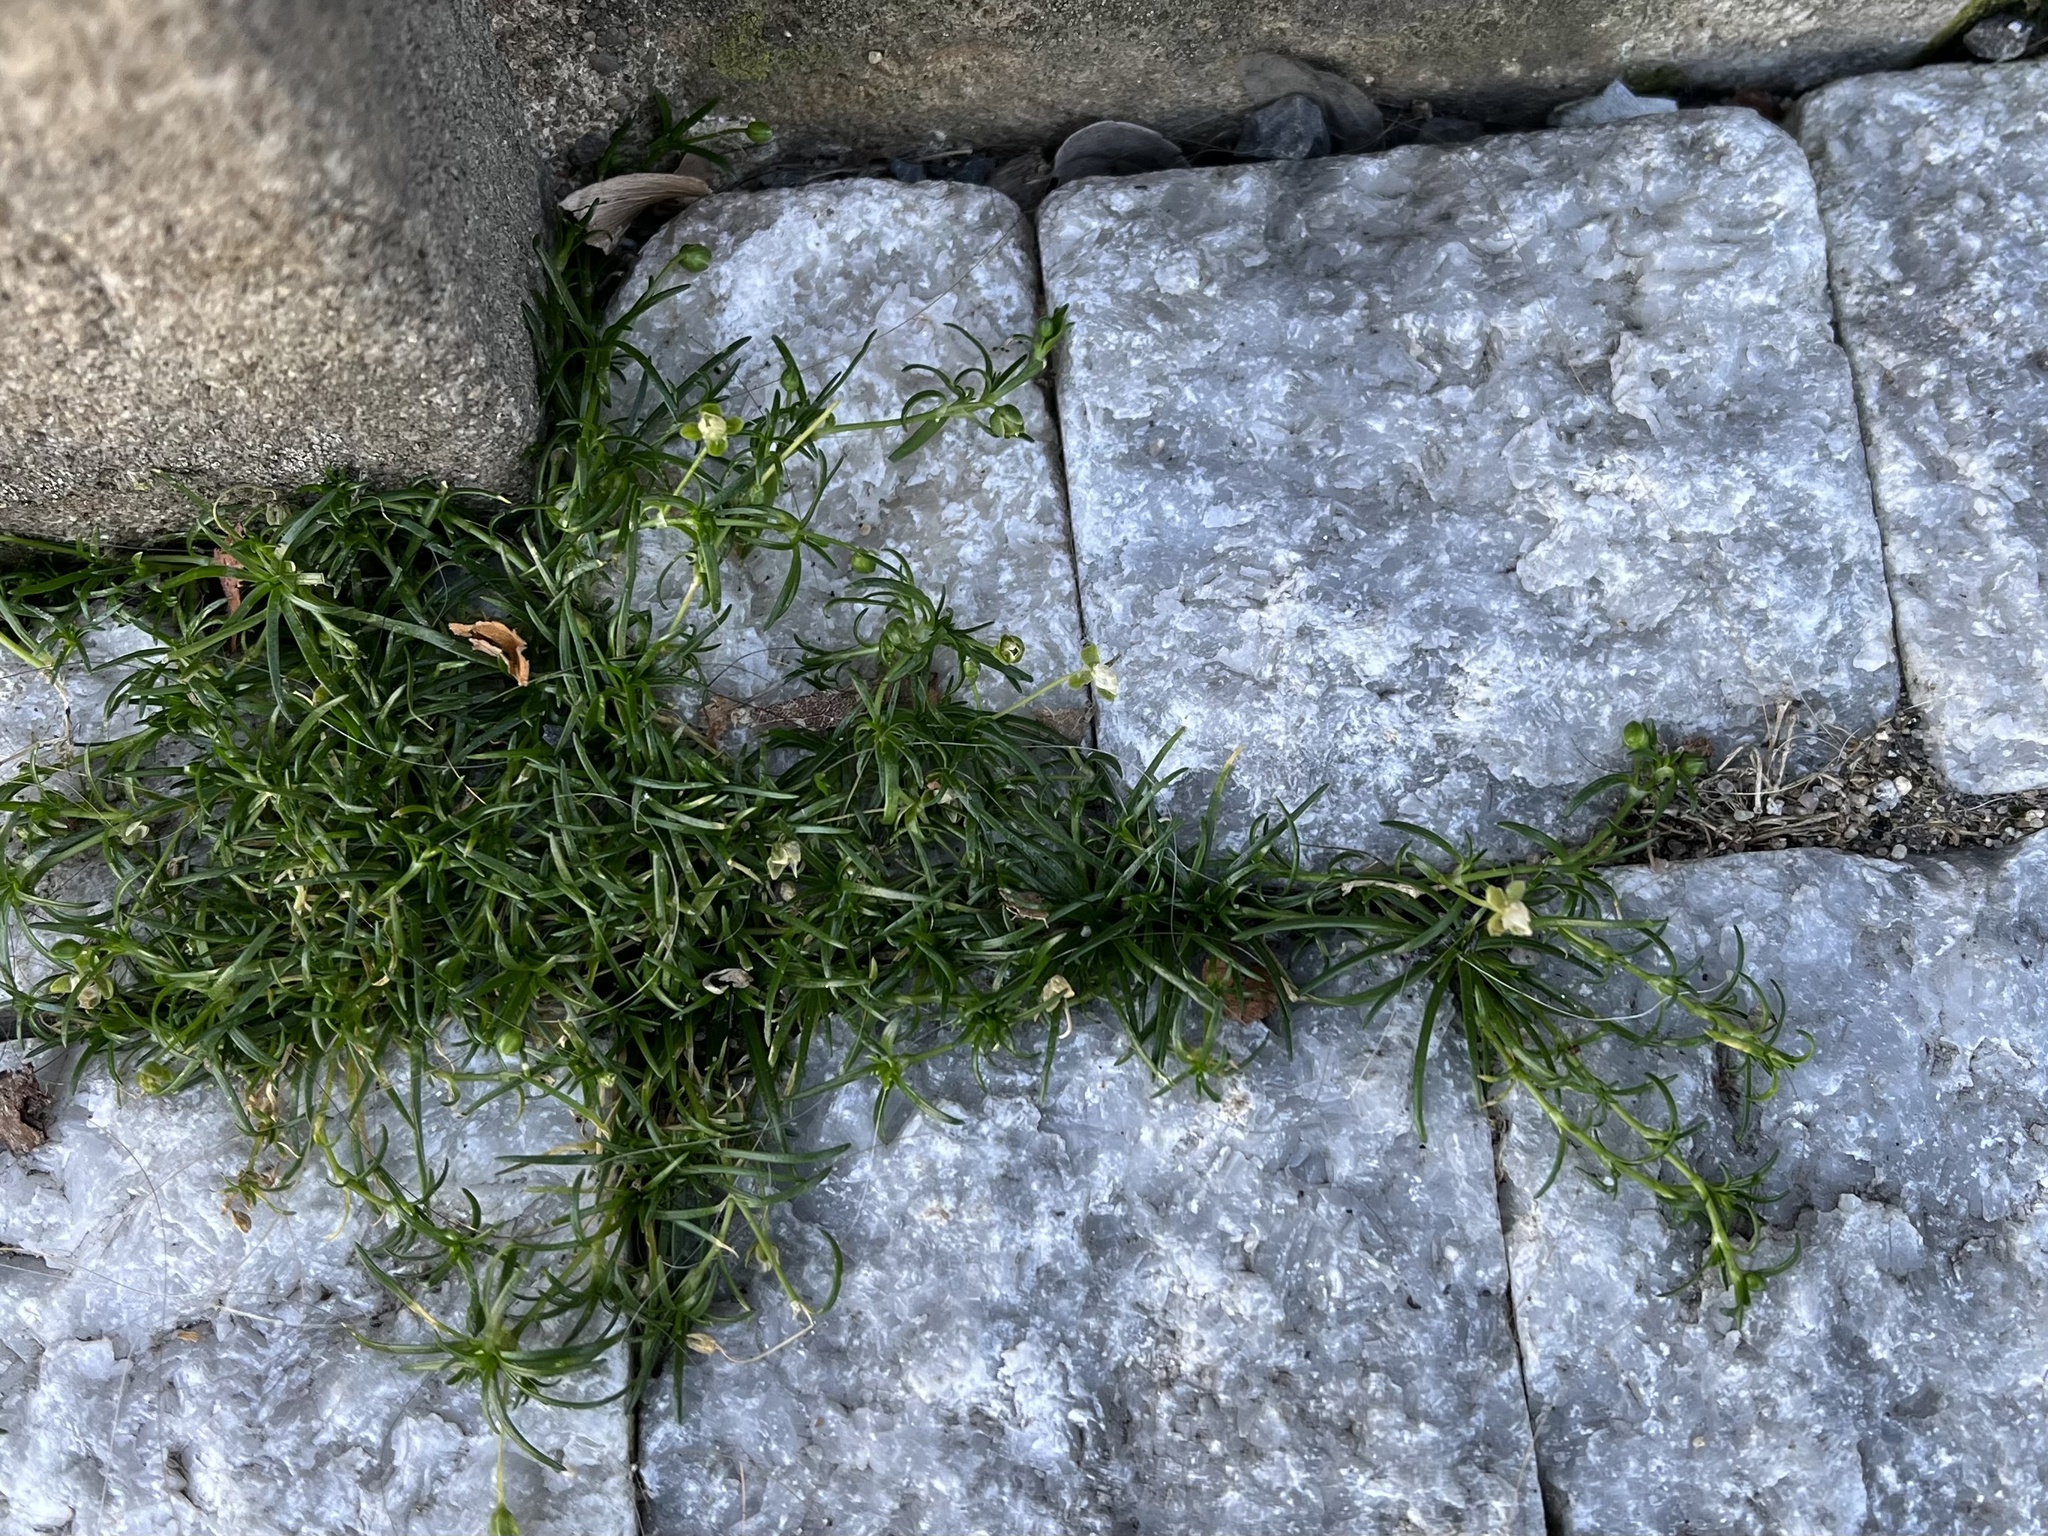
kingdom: Plantae
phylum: Tracheophyta
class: Magnoliopsida
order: Caryophyllales
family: Caryophyllaceae
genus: Sagina
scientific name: Sagina procumbens
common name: Procumbent pearlwort
